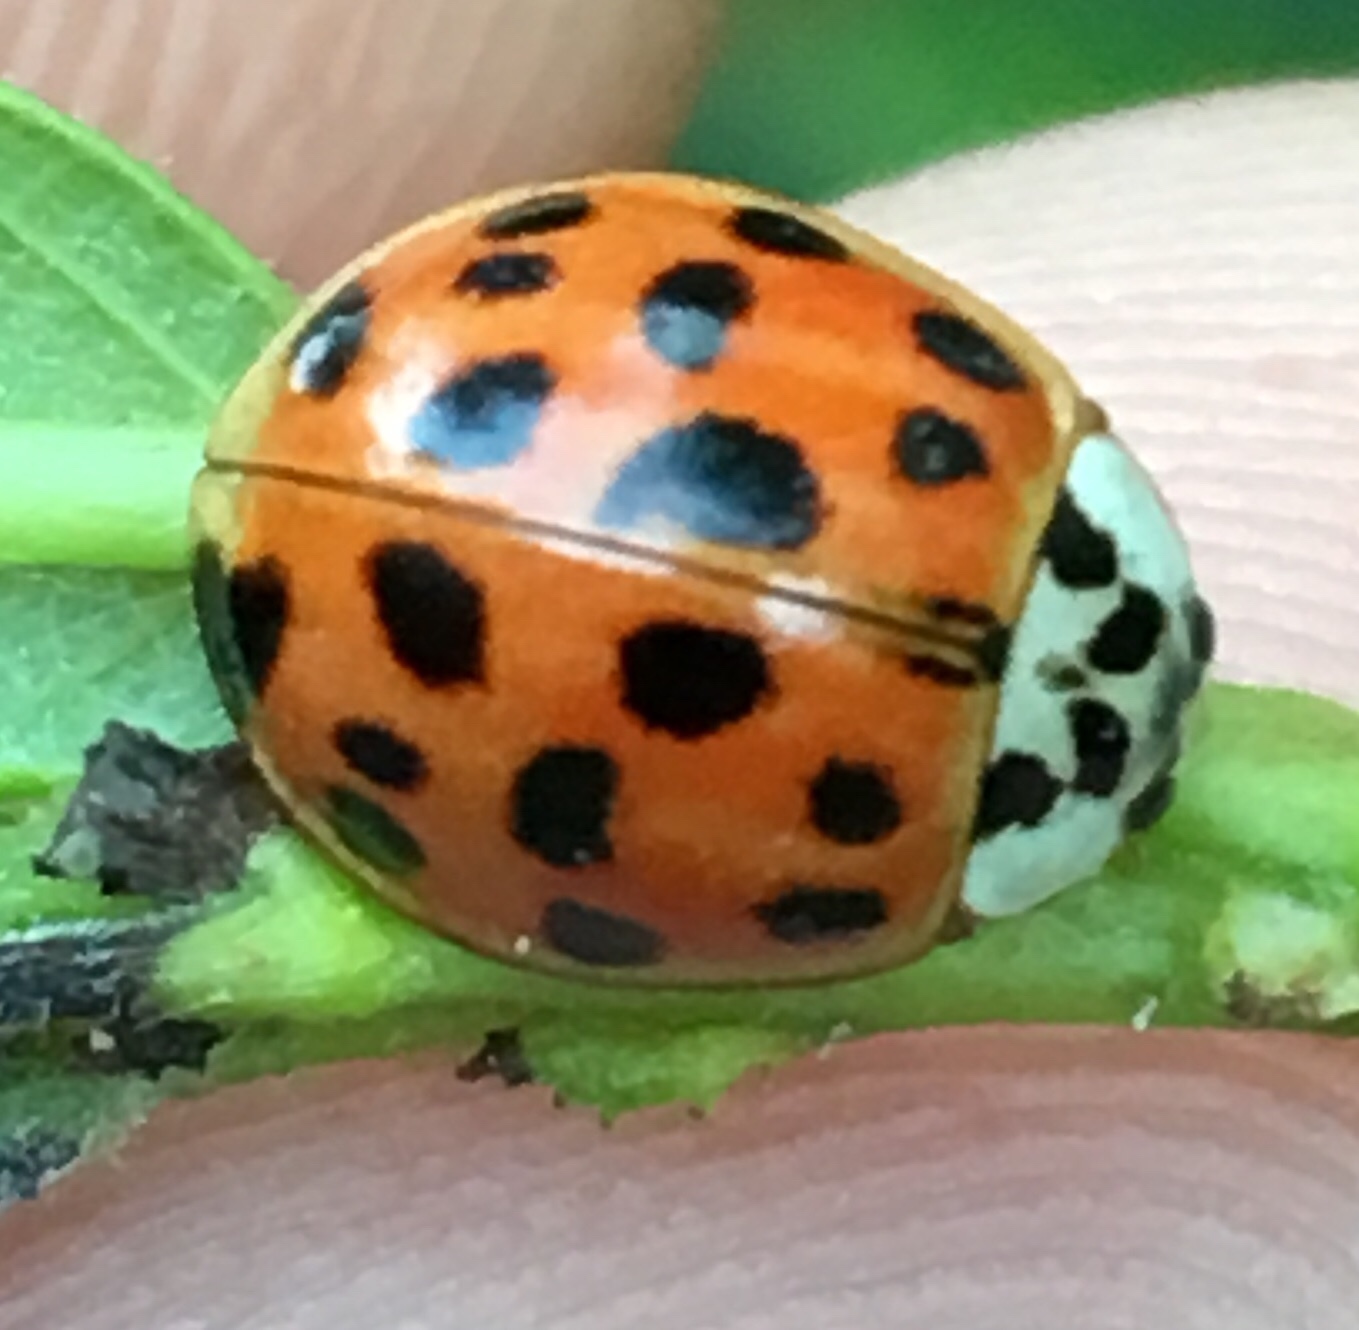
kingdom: Animalia
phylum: Arthropoda
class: Insecta
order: Coleoptera
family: Coccinellidae
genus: Harmonia
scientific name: Harmonia axyridis
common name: Harlequin ladybird
